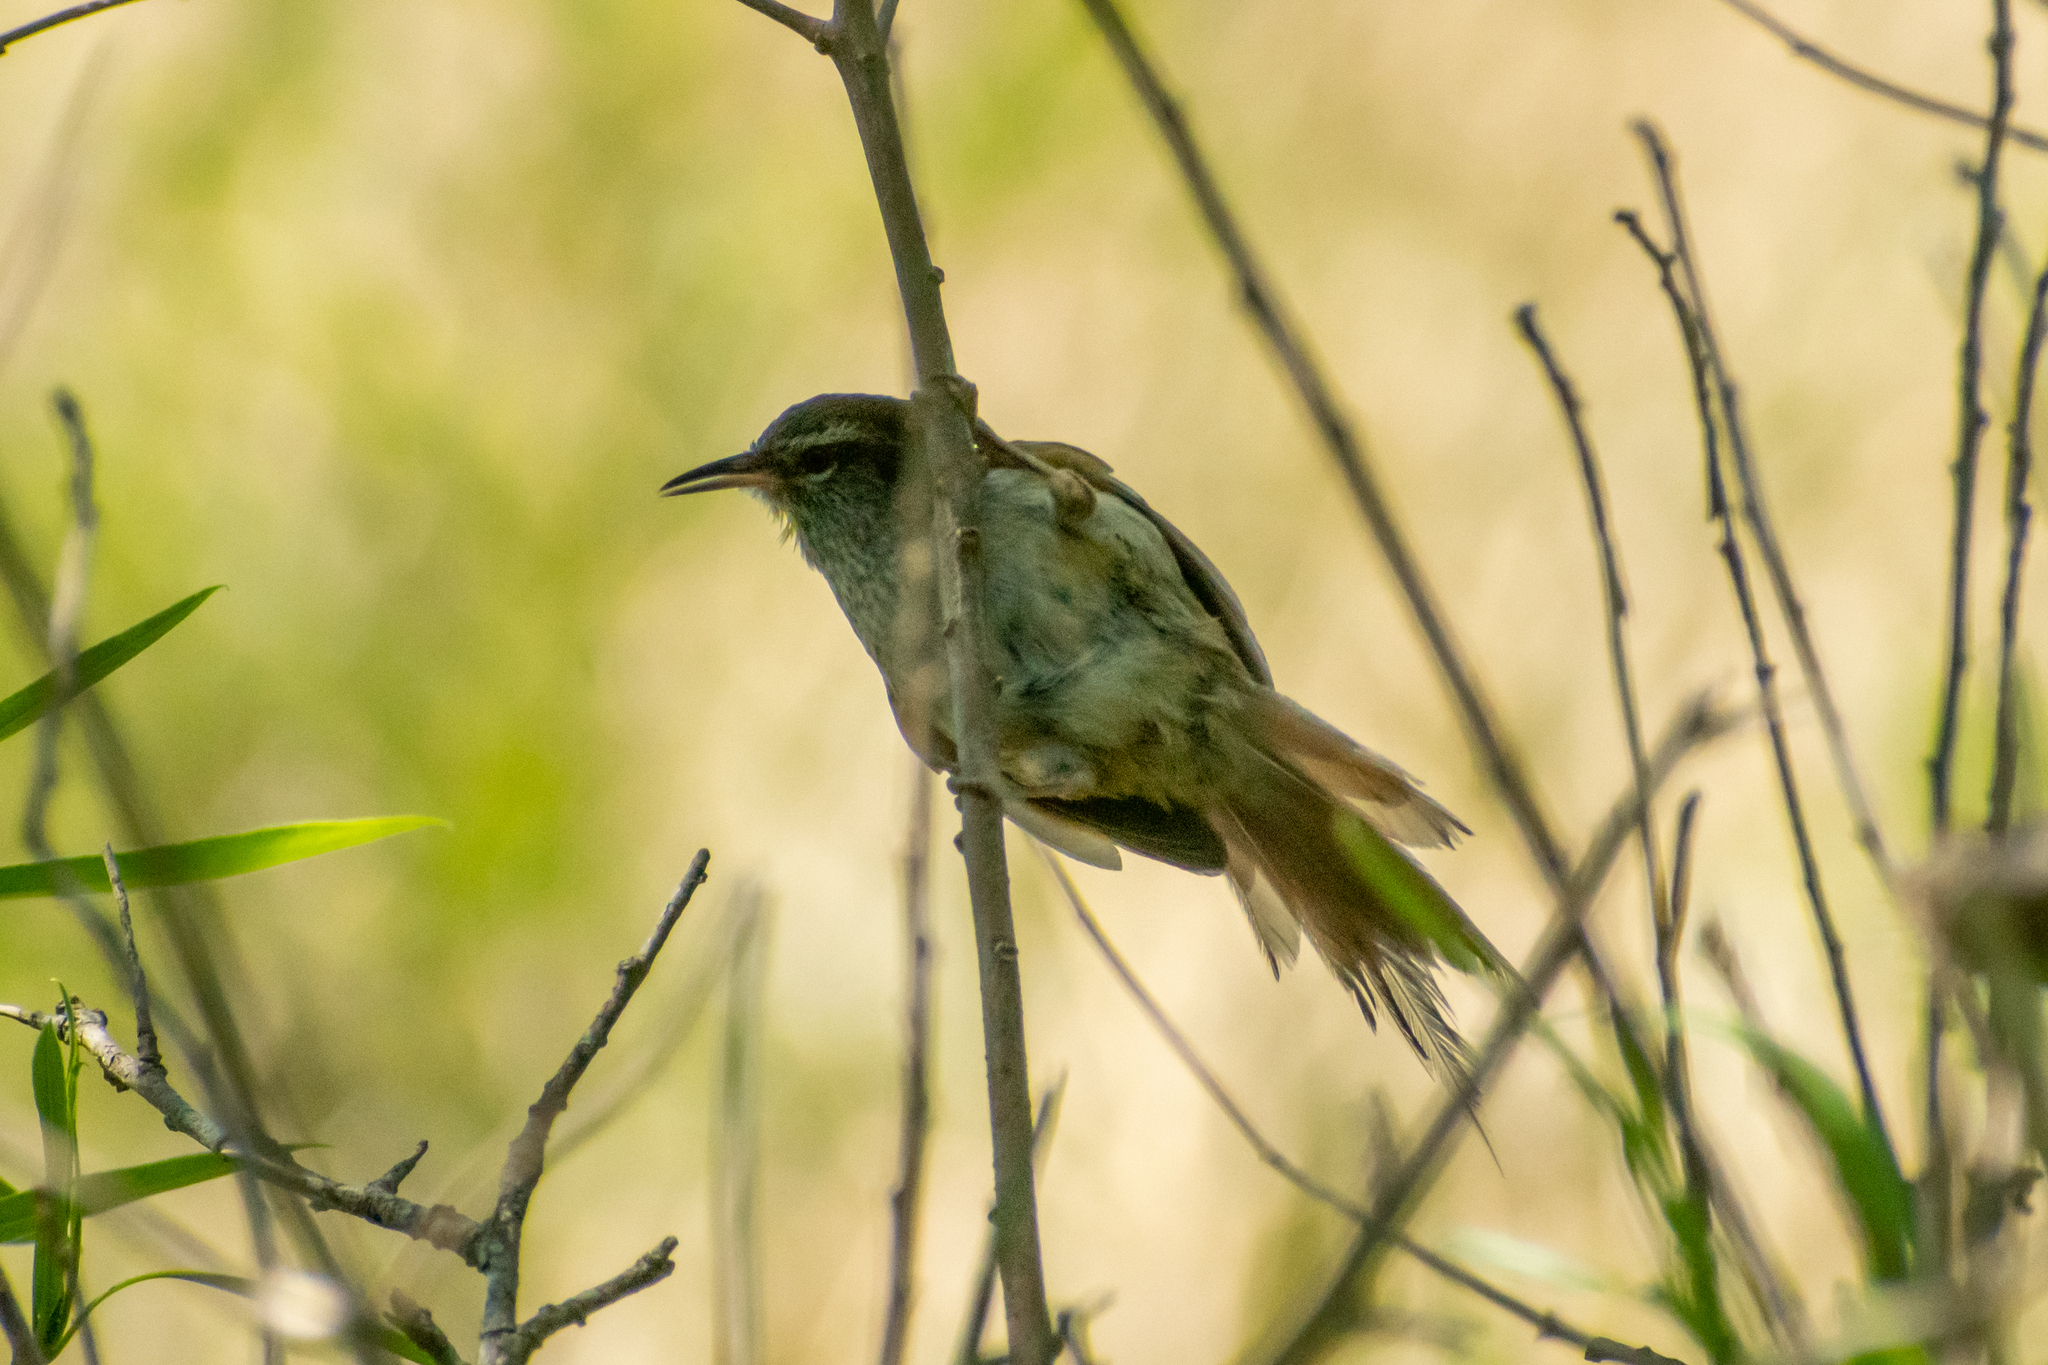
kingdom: Animalia
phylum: Chordata
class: Aves
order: Passeriformes
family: Furnariidae
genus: Cranioleuca
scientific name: Cranioleuca sulphurifera
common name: Sulphur-bearded spinetail
